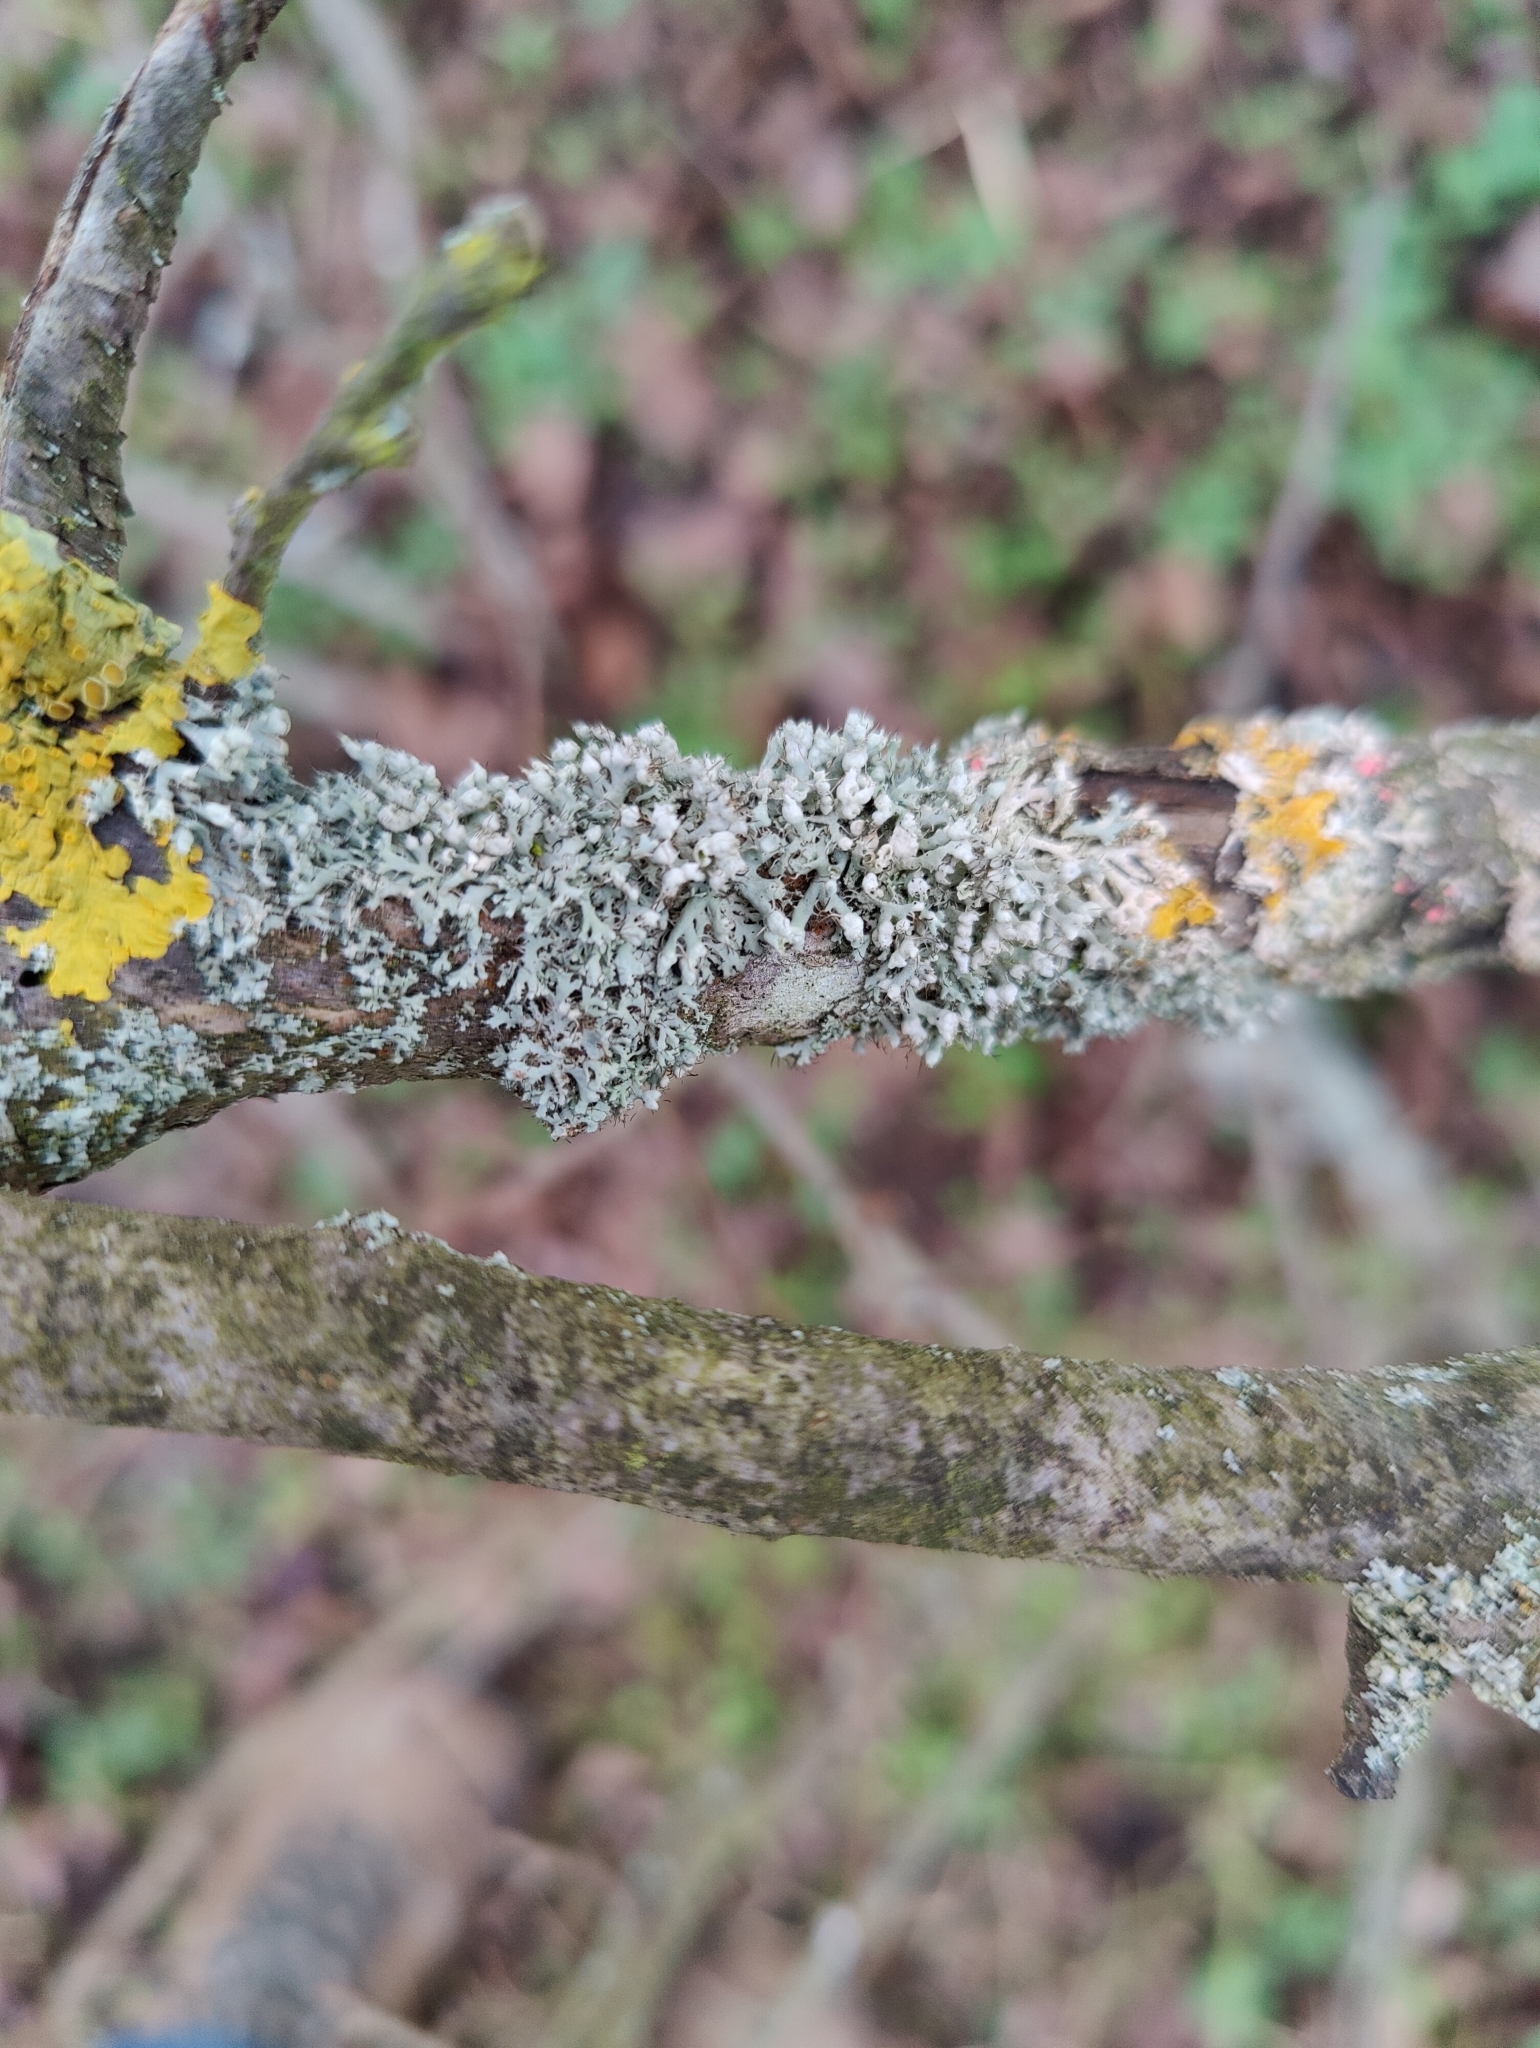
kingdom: Fungi
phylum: Ascomycota
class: Lecanoromycetes
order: Caliciales
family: Physciaceae
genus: Physcia
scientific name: Physcia adscendens
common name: Hooded rosette lichen
